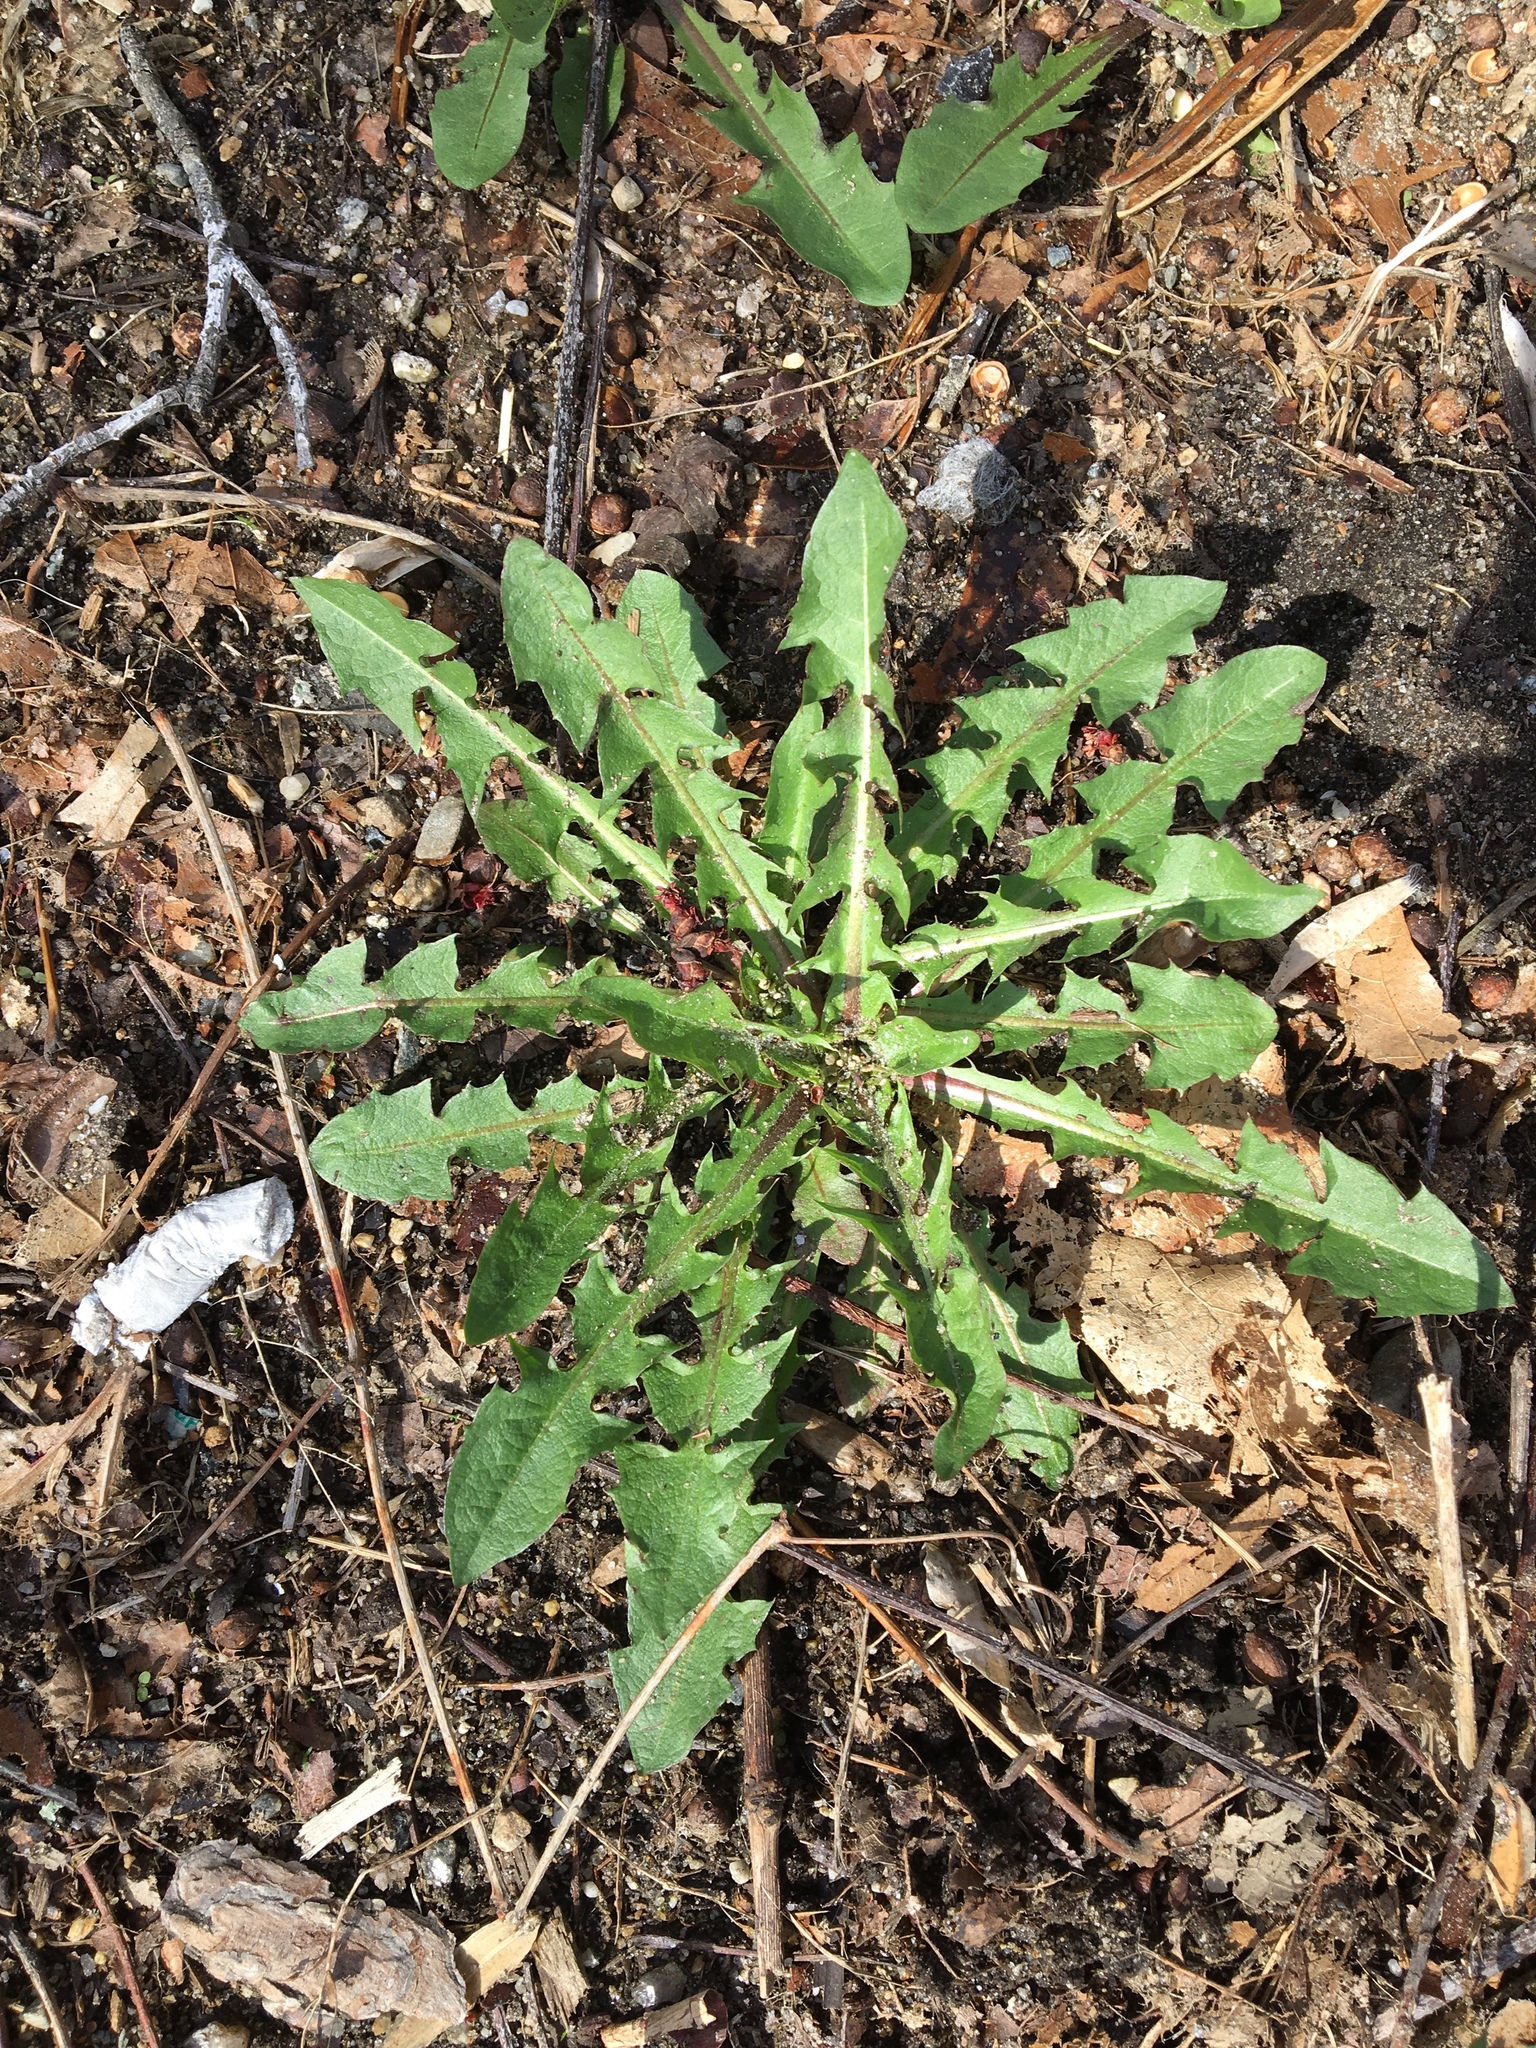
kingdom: Plantae
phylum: Tracheophyta
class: Magnoliopsida
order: Asterales
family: Asteraceae
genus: Taraxacum
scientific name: Taraxacum officinale
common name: Common dandelion
